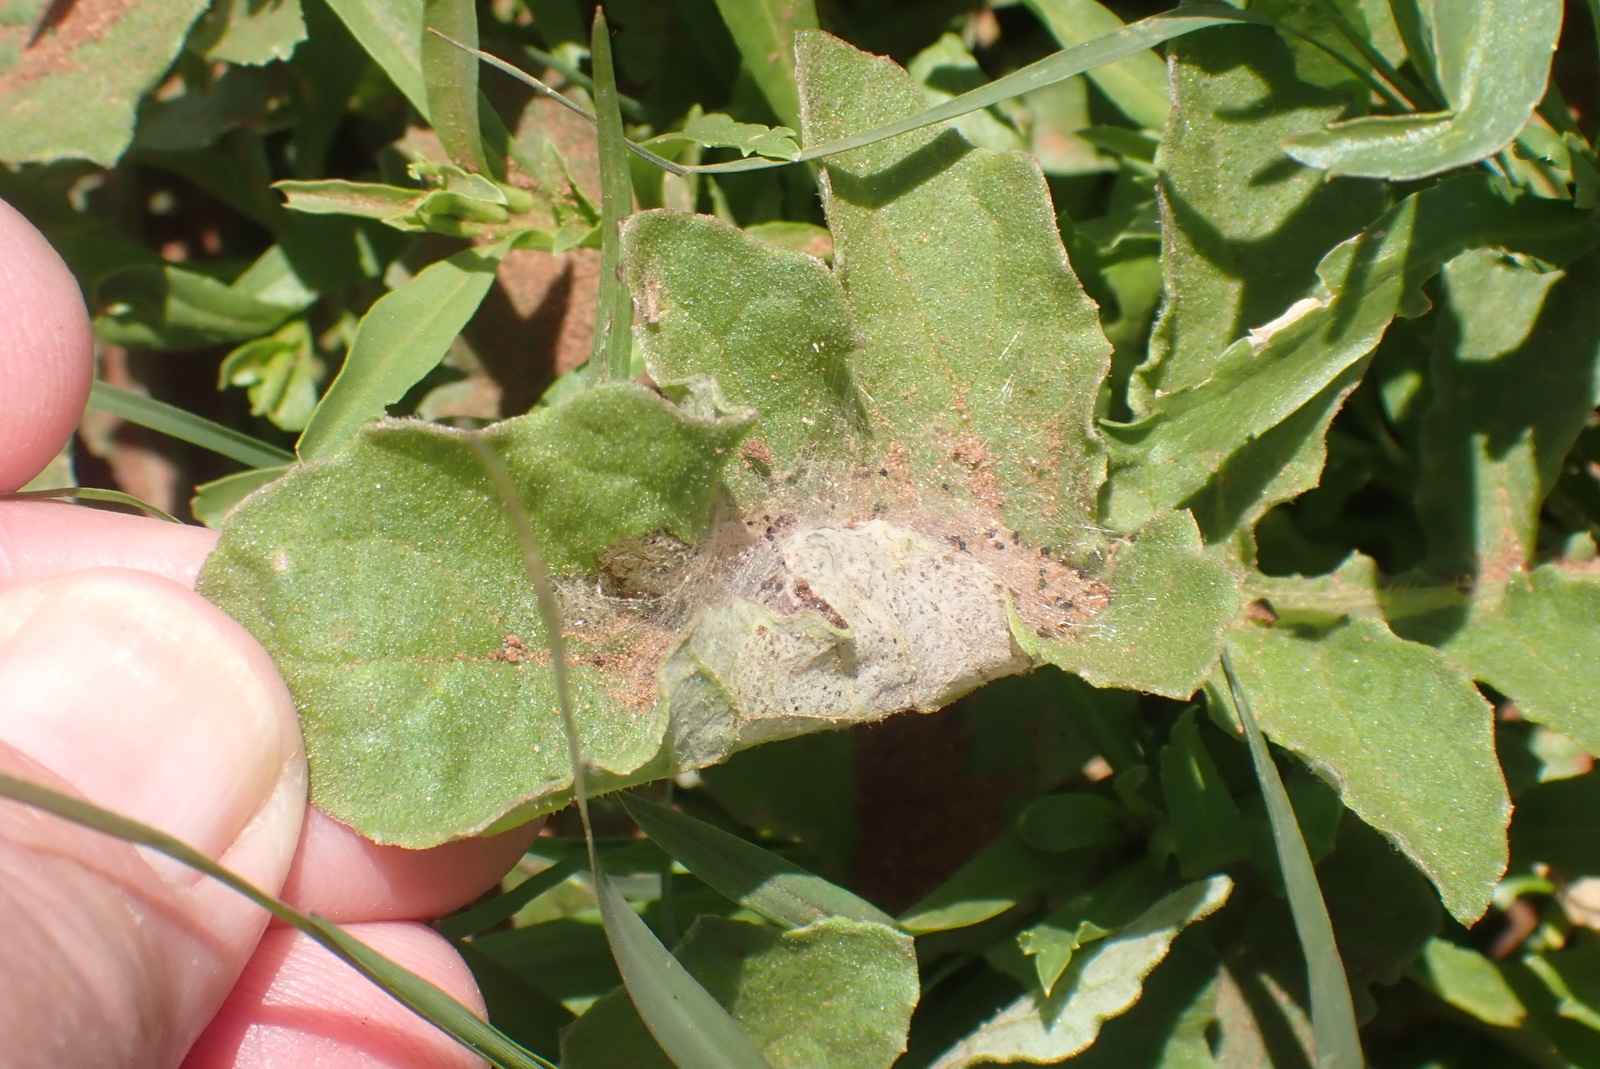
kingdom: Plantae
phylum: Tracheophyta
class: Magnoliopsida
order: Asterales
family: Asteraceae
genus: Arctotis
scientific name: Arctotis arctotoides
